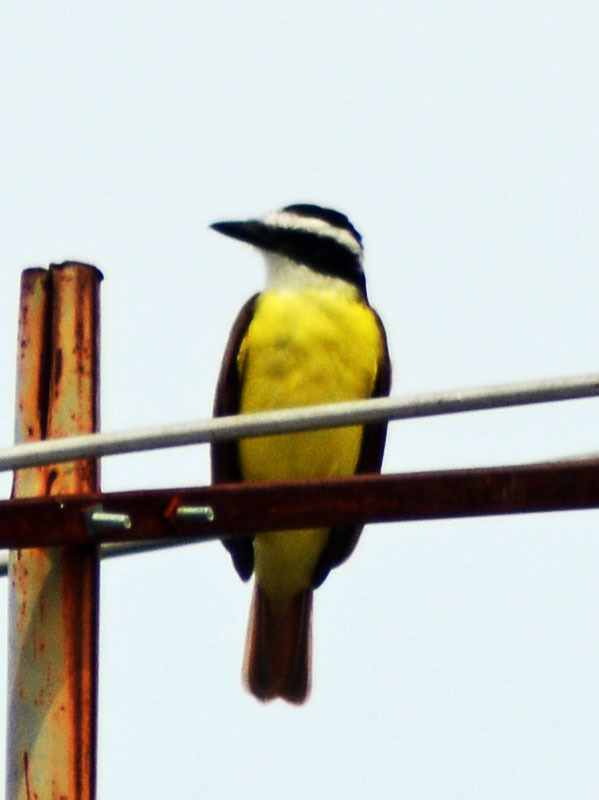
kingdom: Animalia
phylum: Chordata
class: Aves
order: Passeriformes
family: Tyrannidae
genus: Pitangus
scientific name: Pitangus sulphuratus
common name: Great kiskadee
